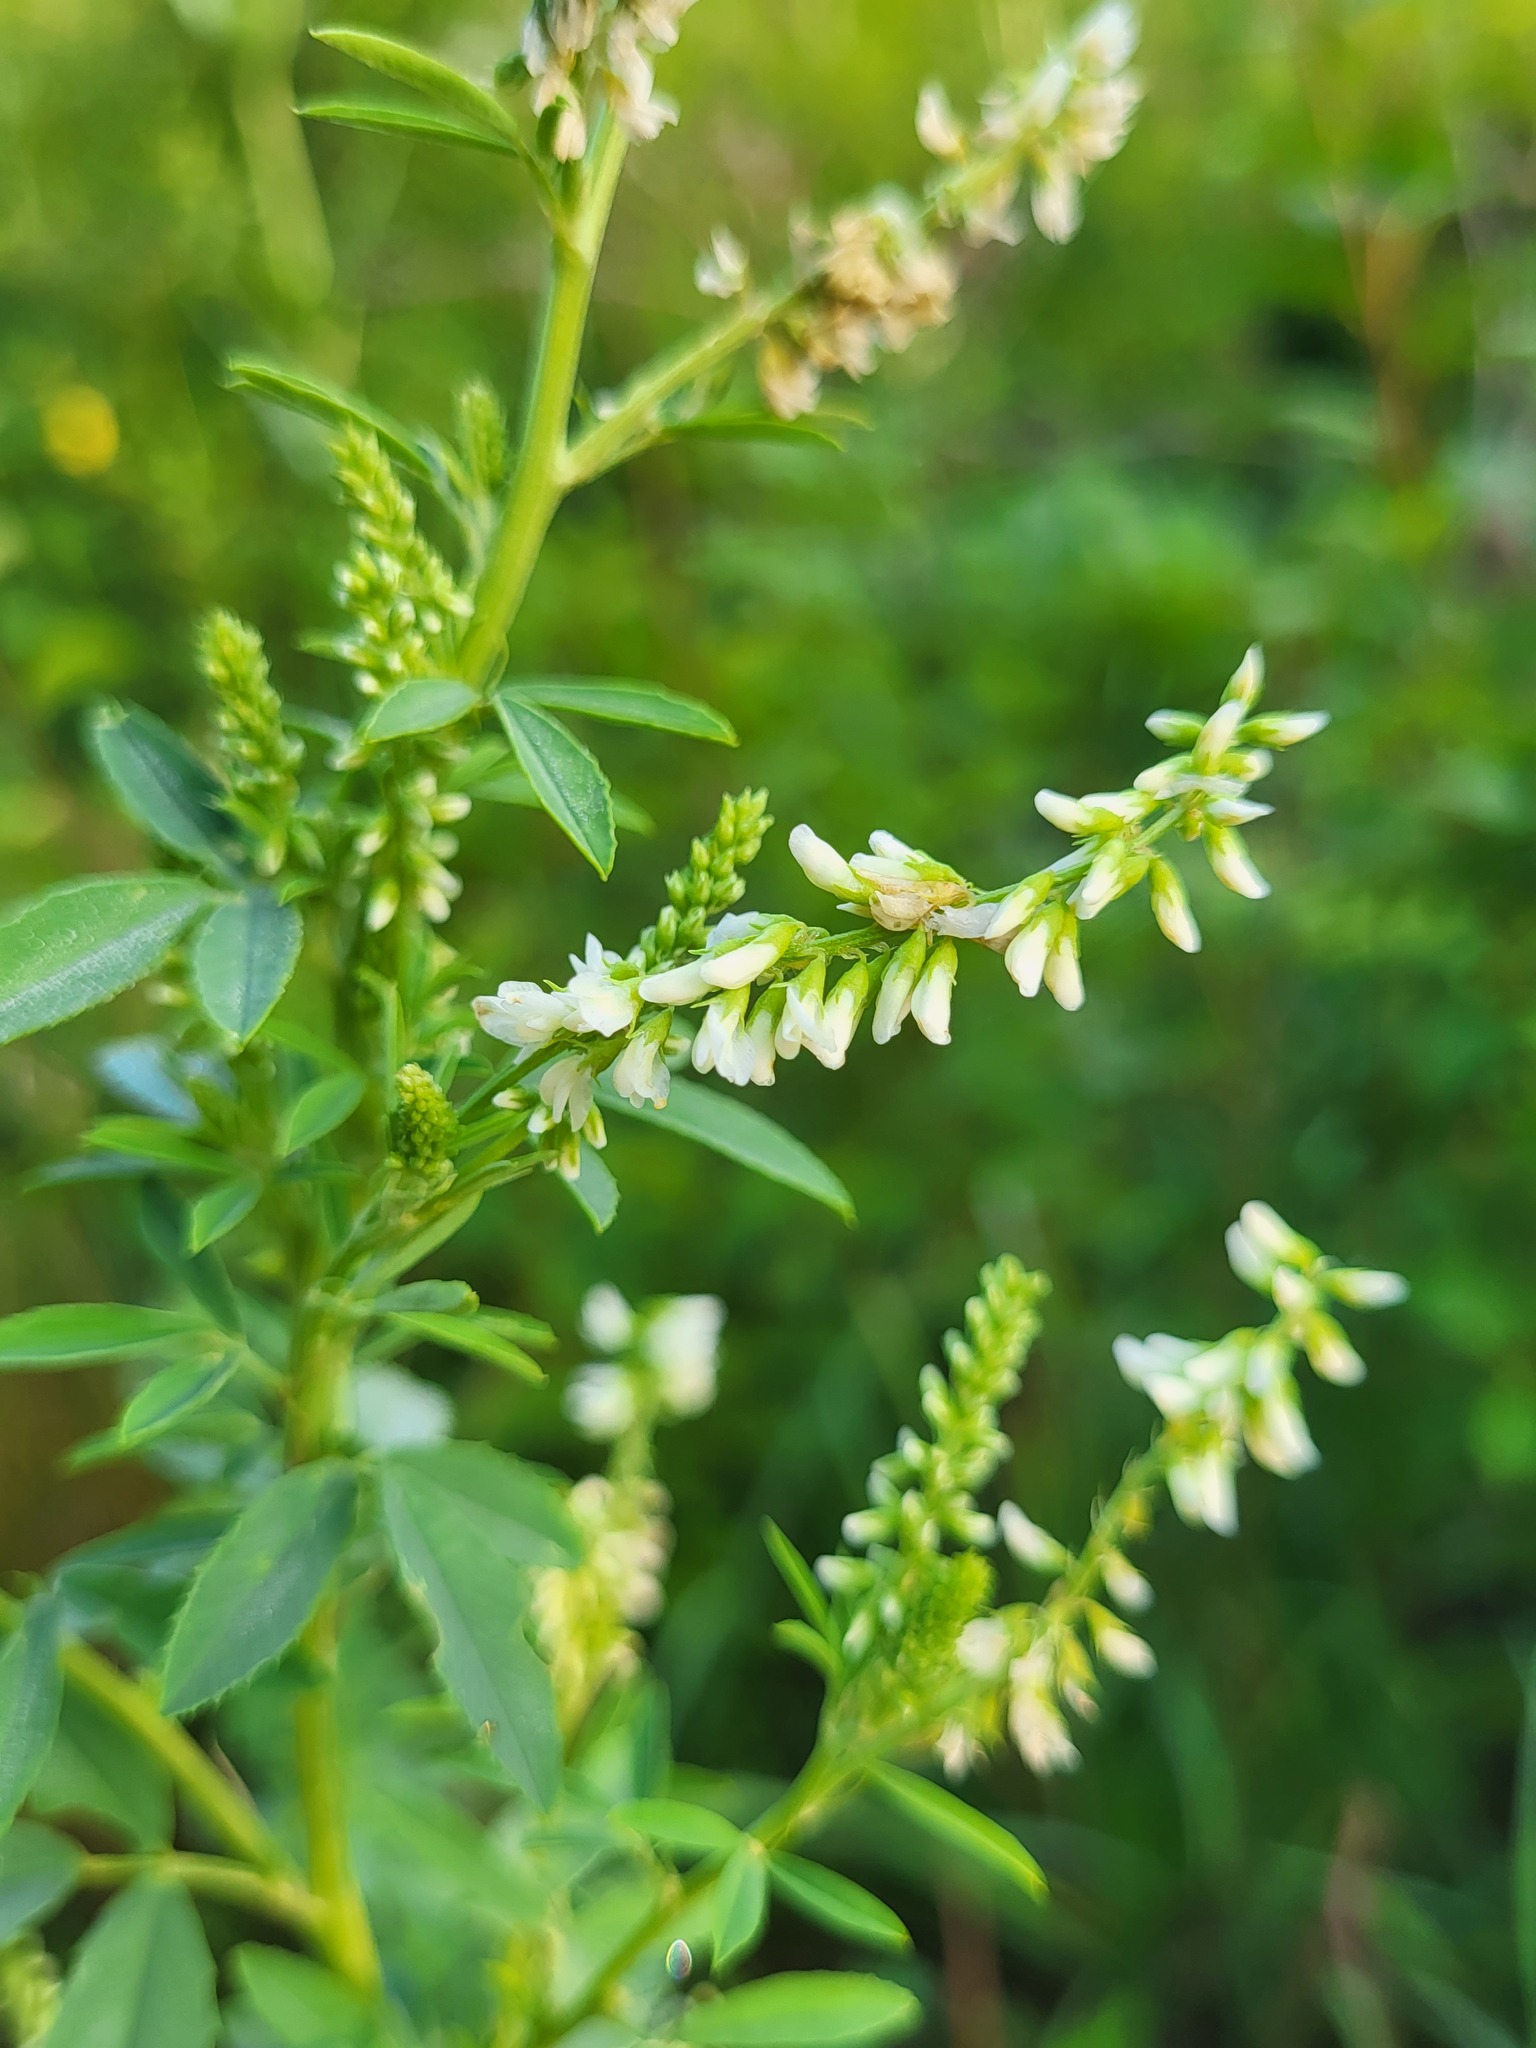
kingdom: Plantae
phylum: Tracheophyta
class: Magnoliopsida
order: Fabales
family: Fabaceae
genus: Melilotus
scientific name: Melilotus albus
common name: White melilot
